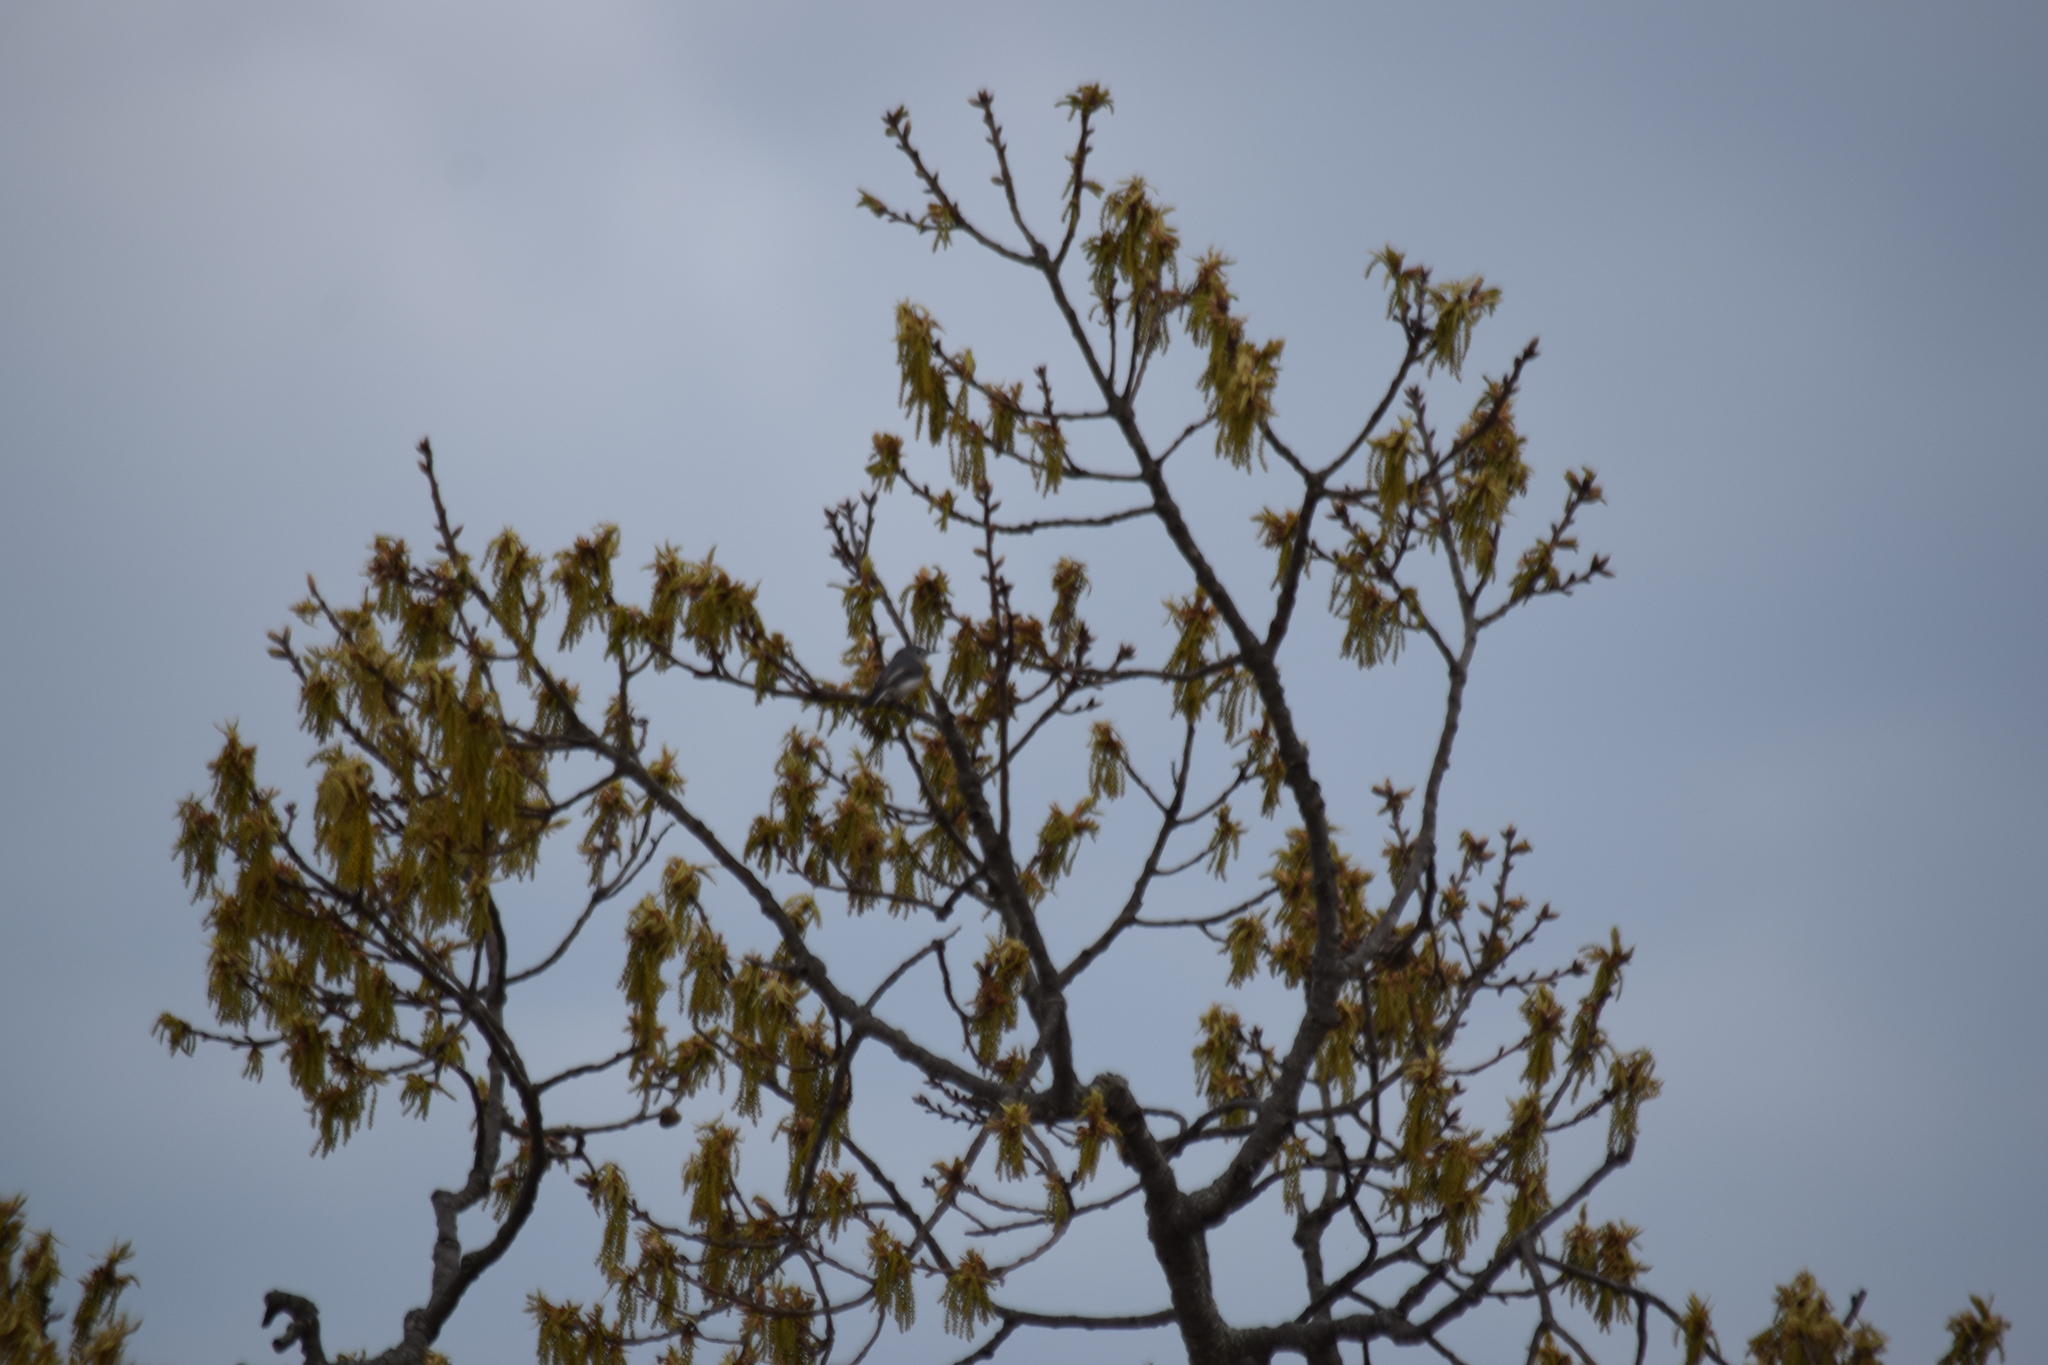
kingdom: Animalia
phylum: Chordata
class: Aves
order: Passeriformes
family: Polioptilidae
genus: Polioptila
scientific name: Polioptila caerulea
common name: Blue-gray gnatcatcher
